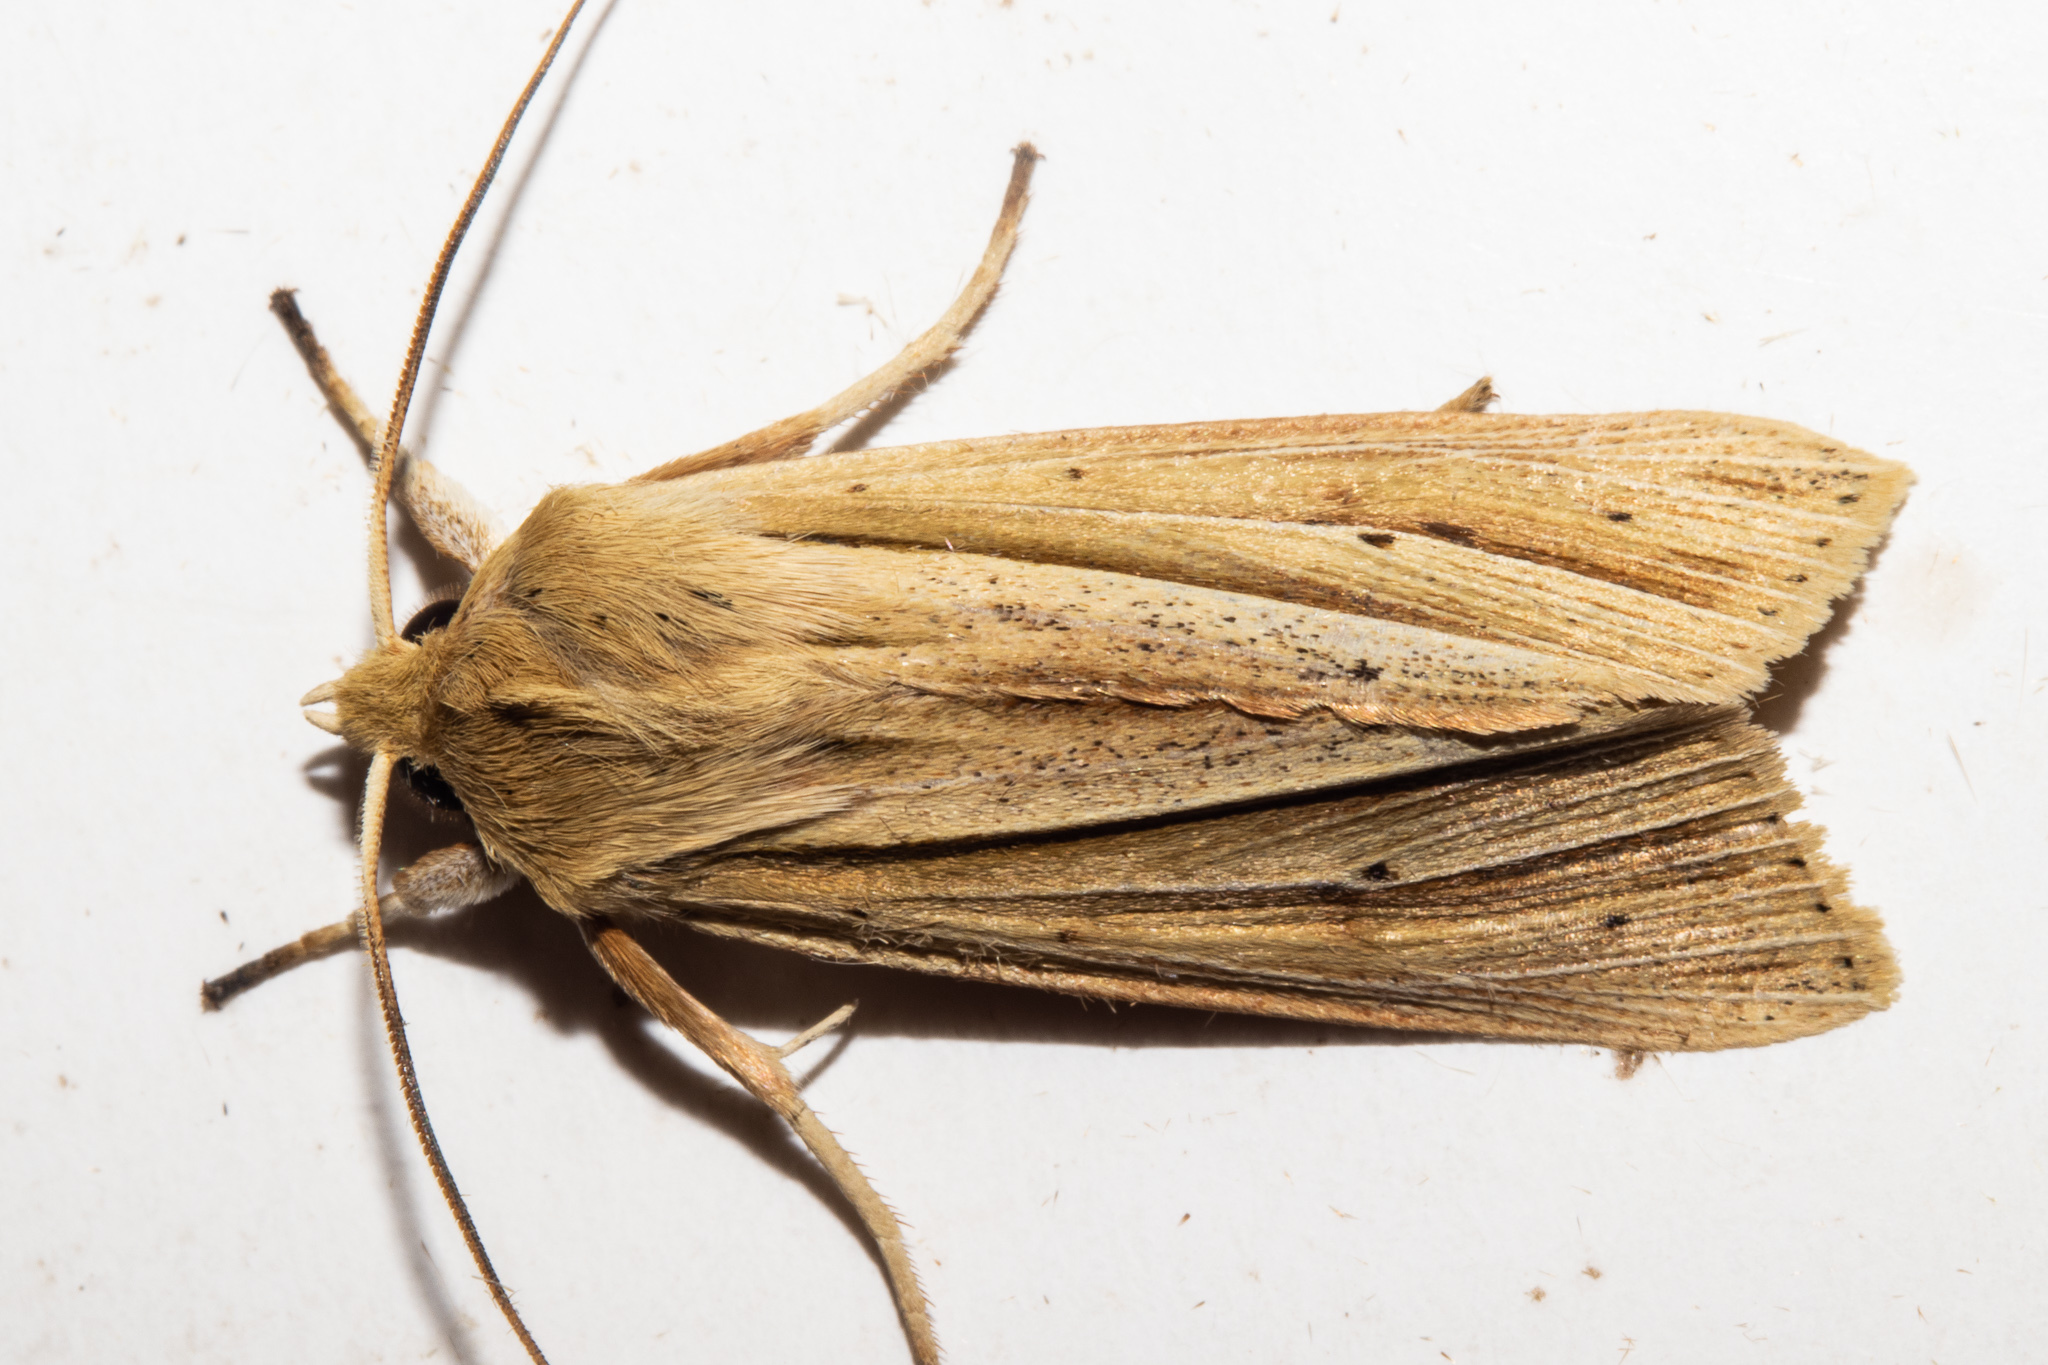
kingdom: Animalia
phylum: Arthropoda
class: Insecta
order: Lepidoptera
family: Noctuidae
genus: Ichneutica
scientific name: Ichneutica sulcana
